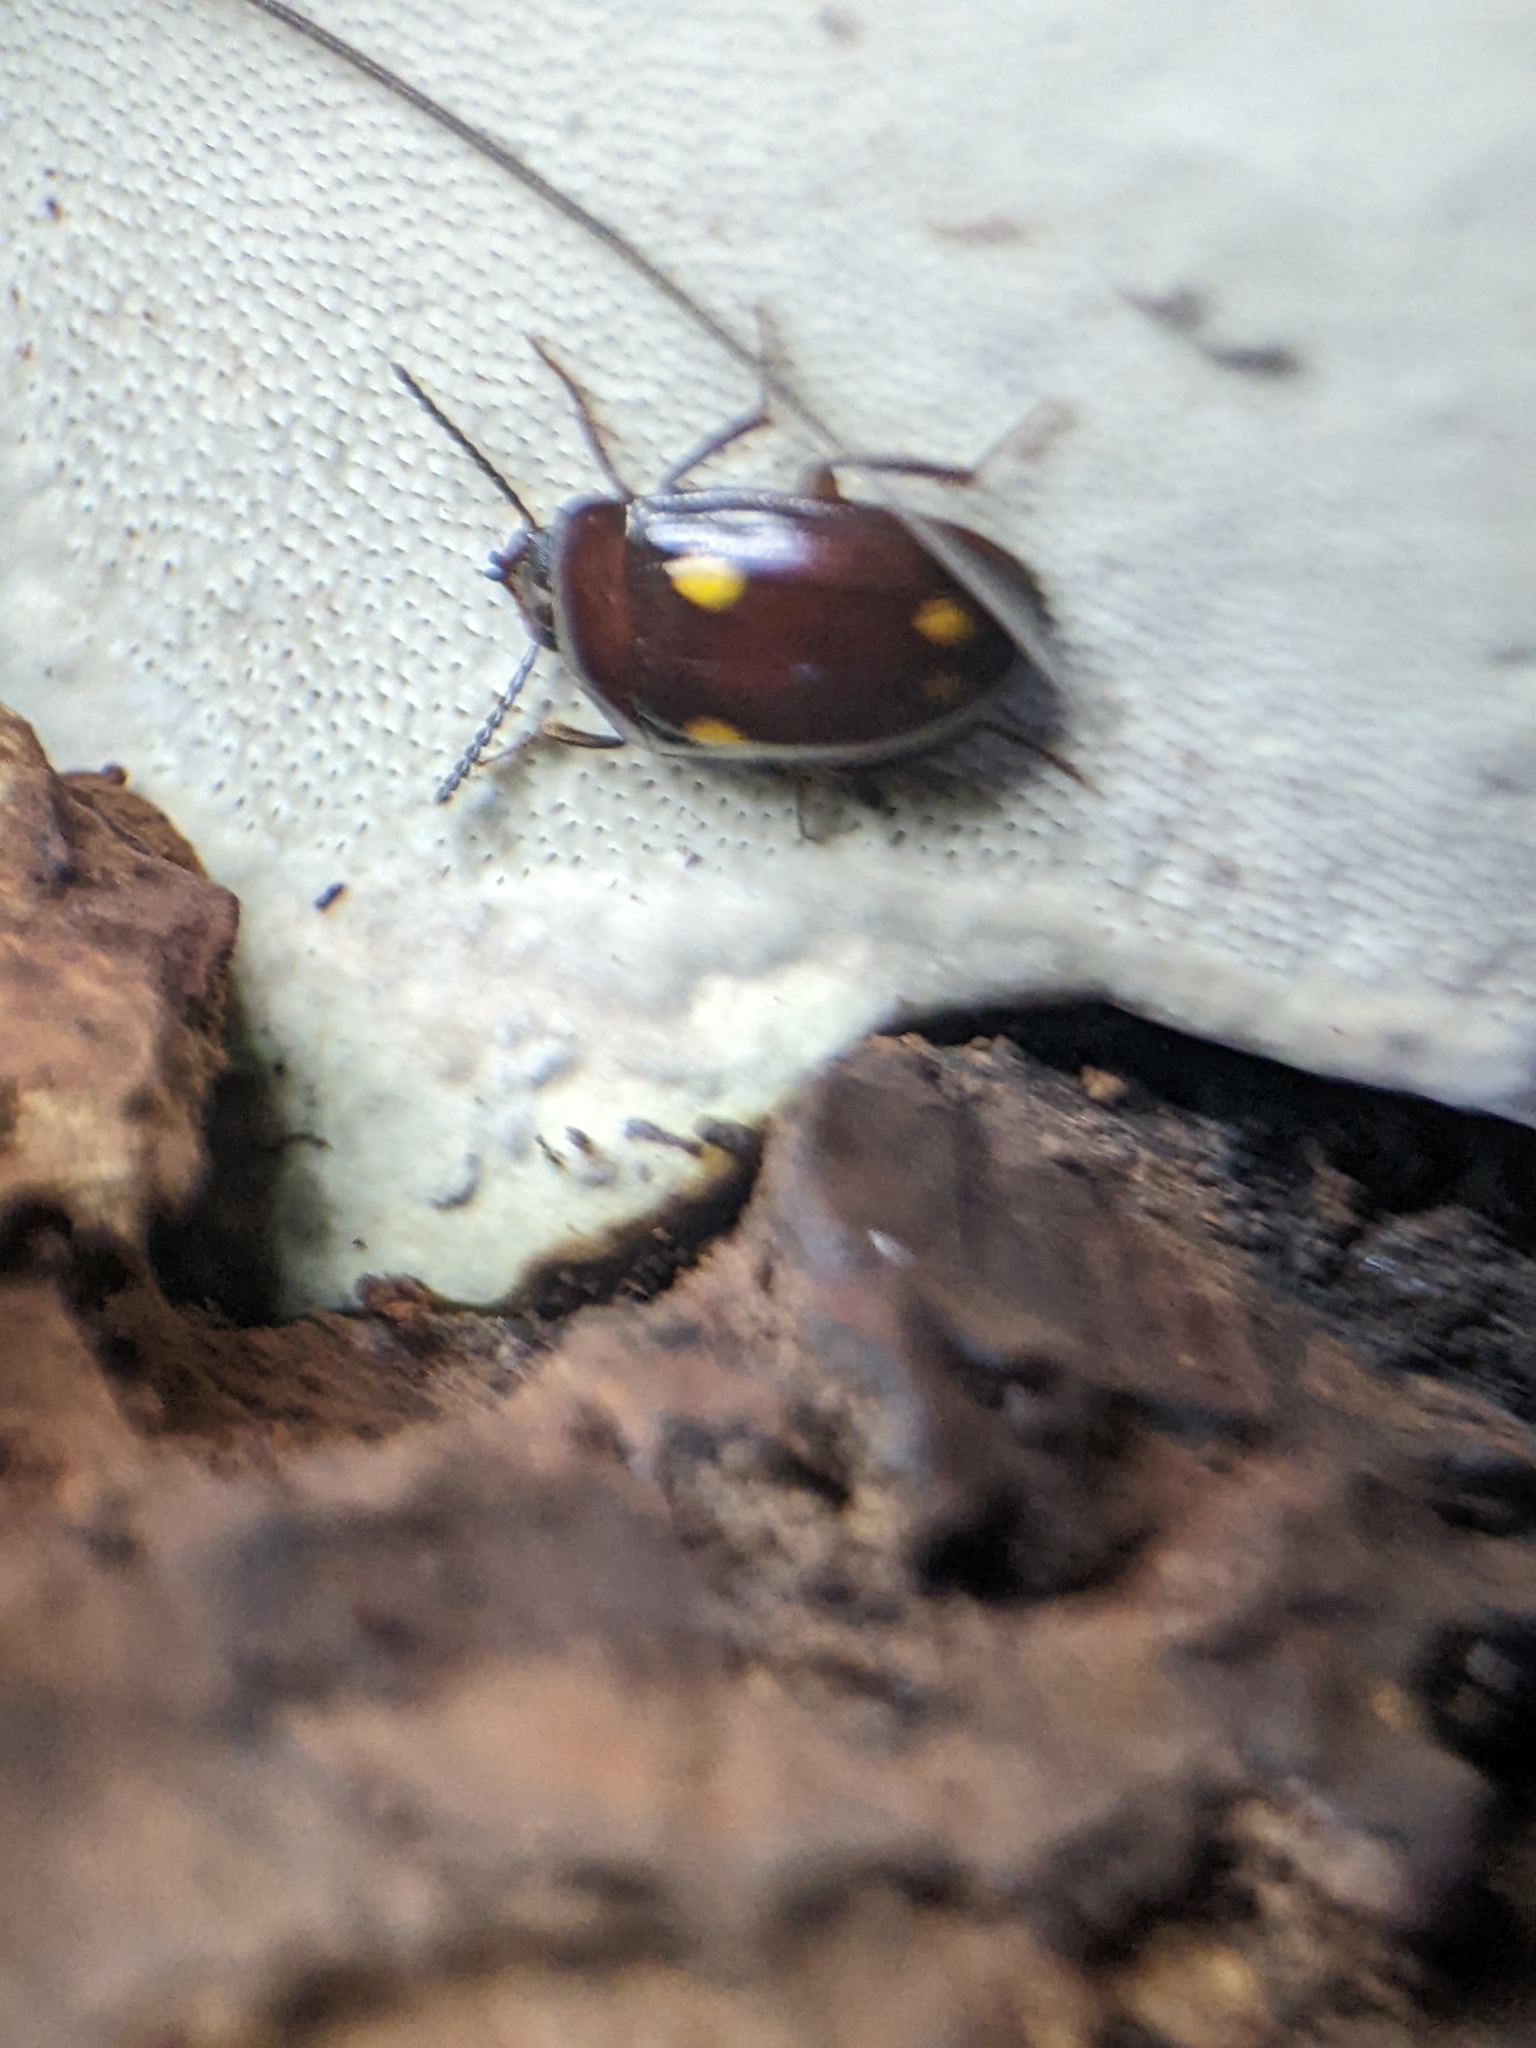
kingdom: Animalia
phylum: Arthropoda
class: Insecta
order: Coleoptera
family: Tenebrionidae
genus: Ischnodactylus
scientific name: Ischnodactylus
